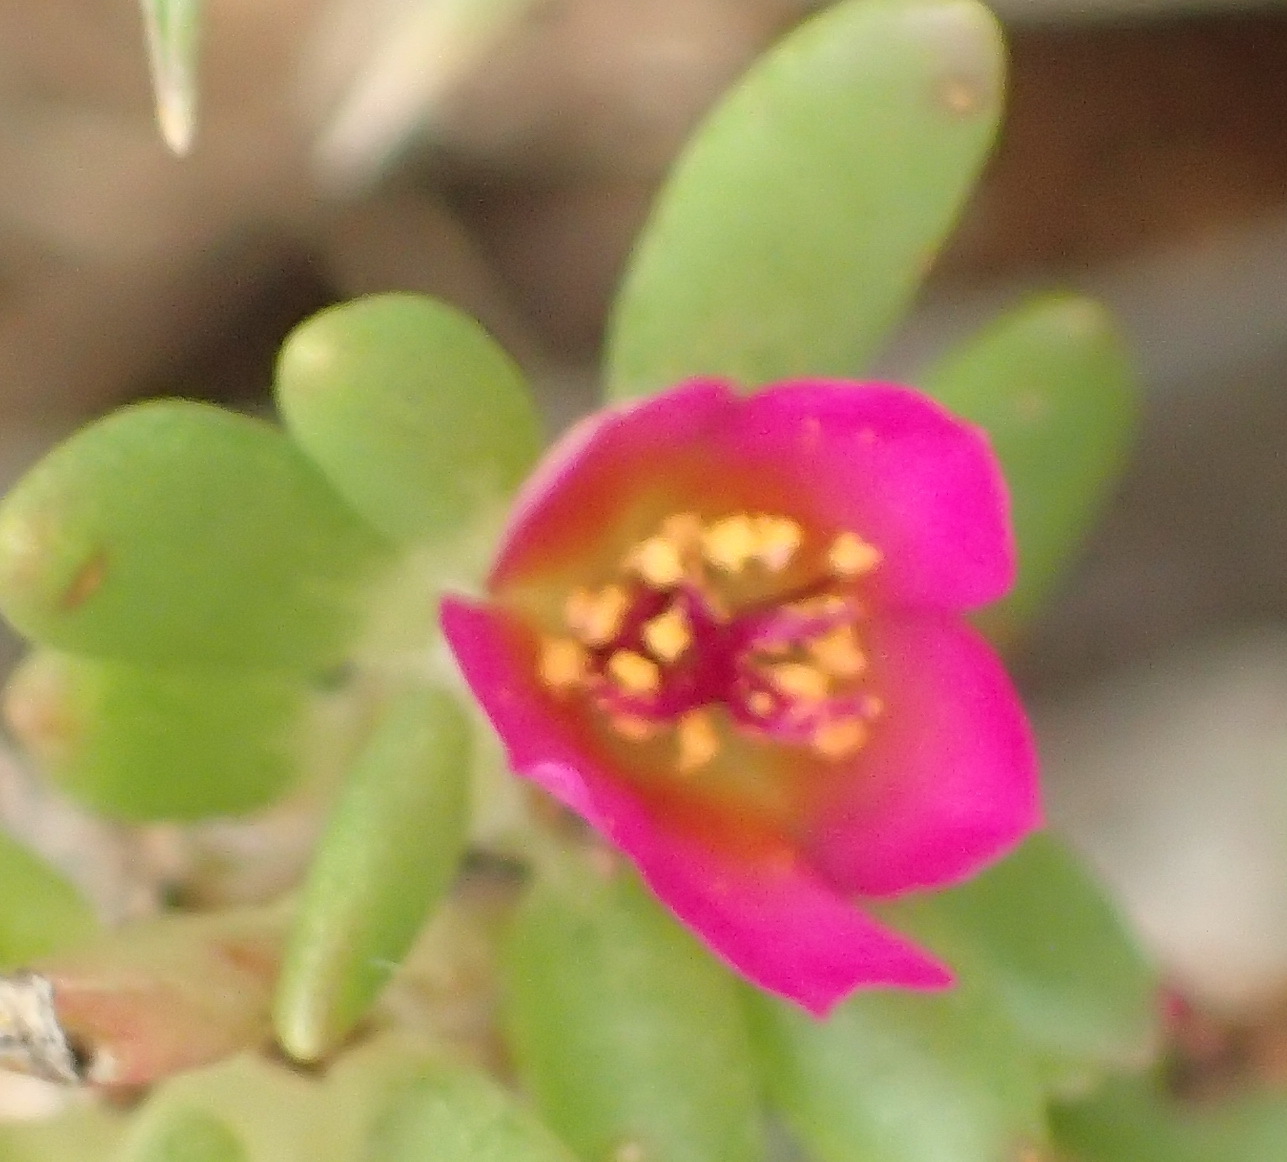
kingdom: Plantae
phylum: Tracheophyta
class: Magnoliopsida
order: Caryophyllales
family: Portulacaceae
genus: Portulaca
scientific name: Portulaca amilis
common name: Paraguayan purslane
